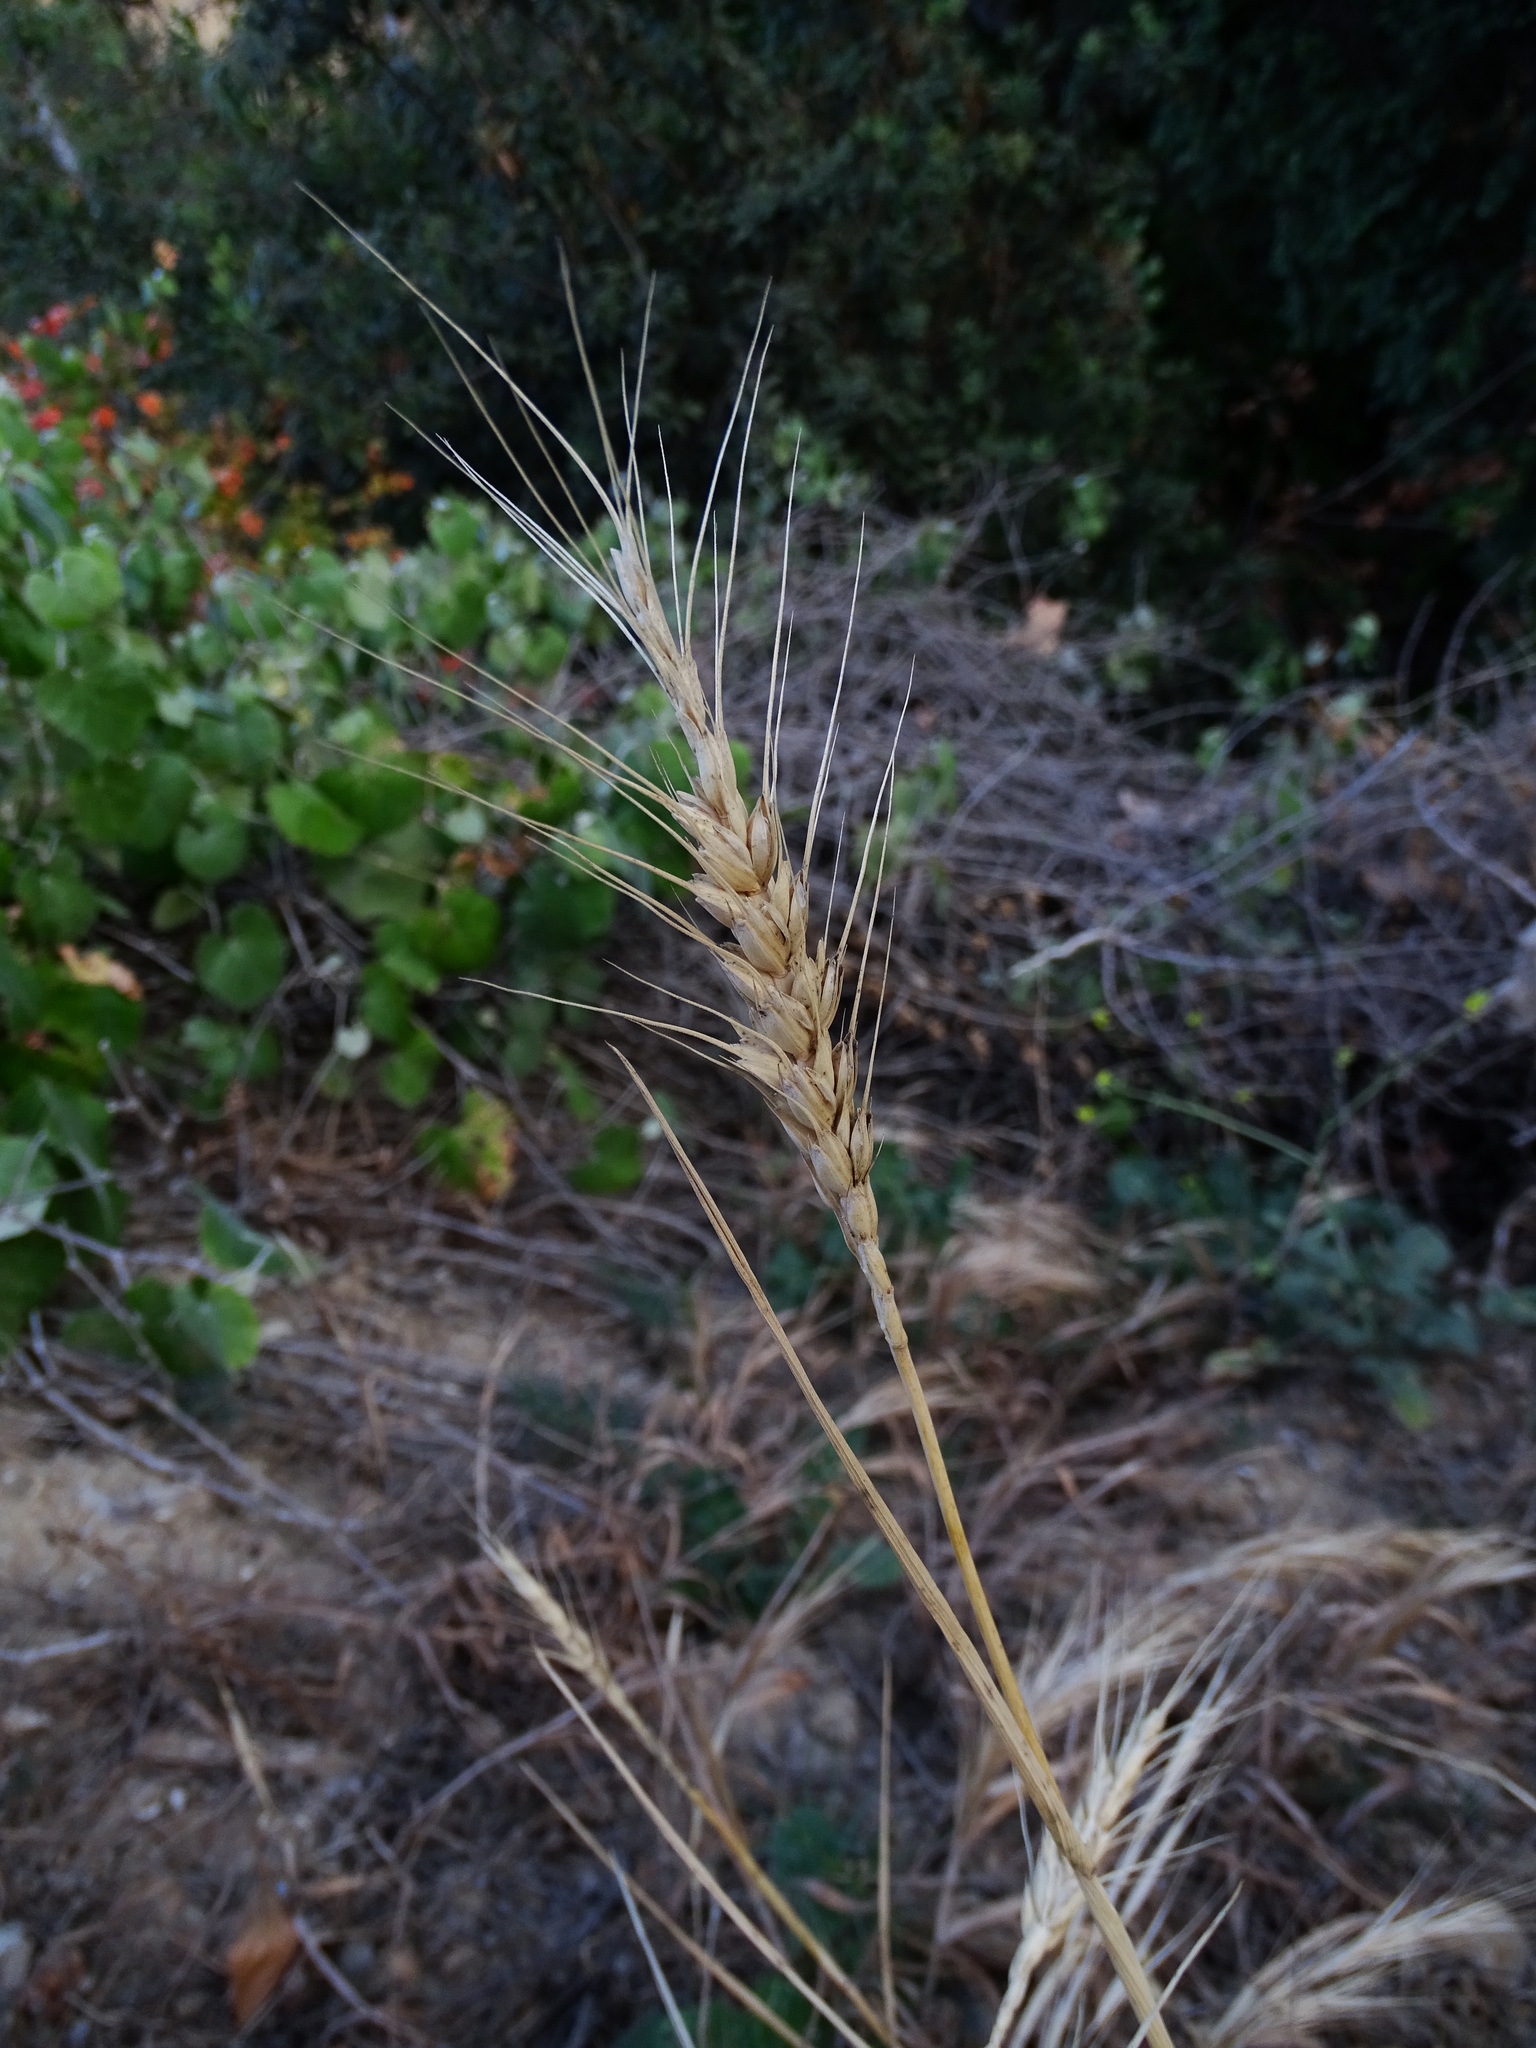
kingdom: Plantae
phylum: Tracheophyta
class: Liliopsida
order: Poales
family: Poaceae
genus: Triticum
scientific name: Triticum aestivum
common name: Common wheat
